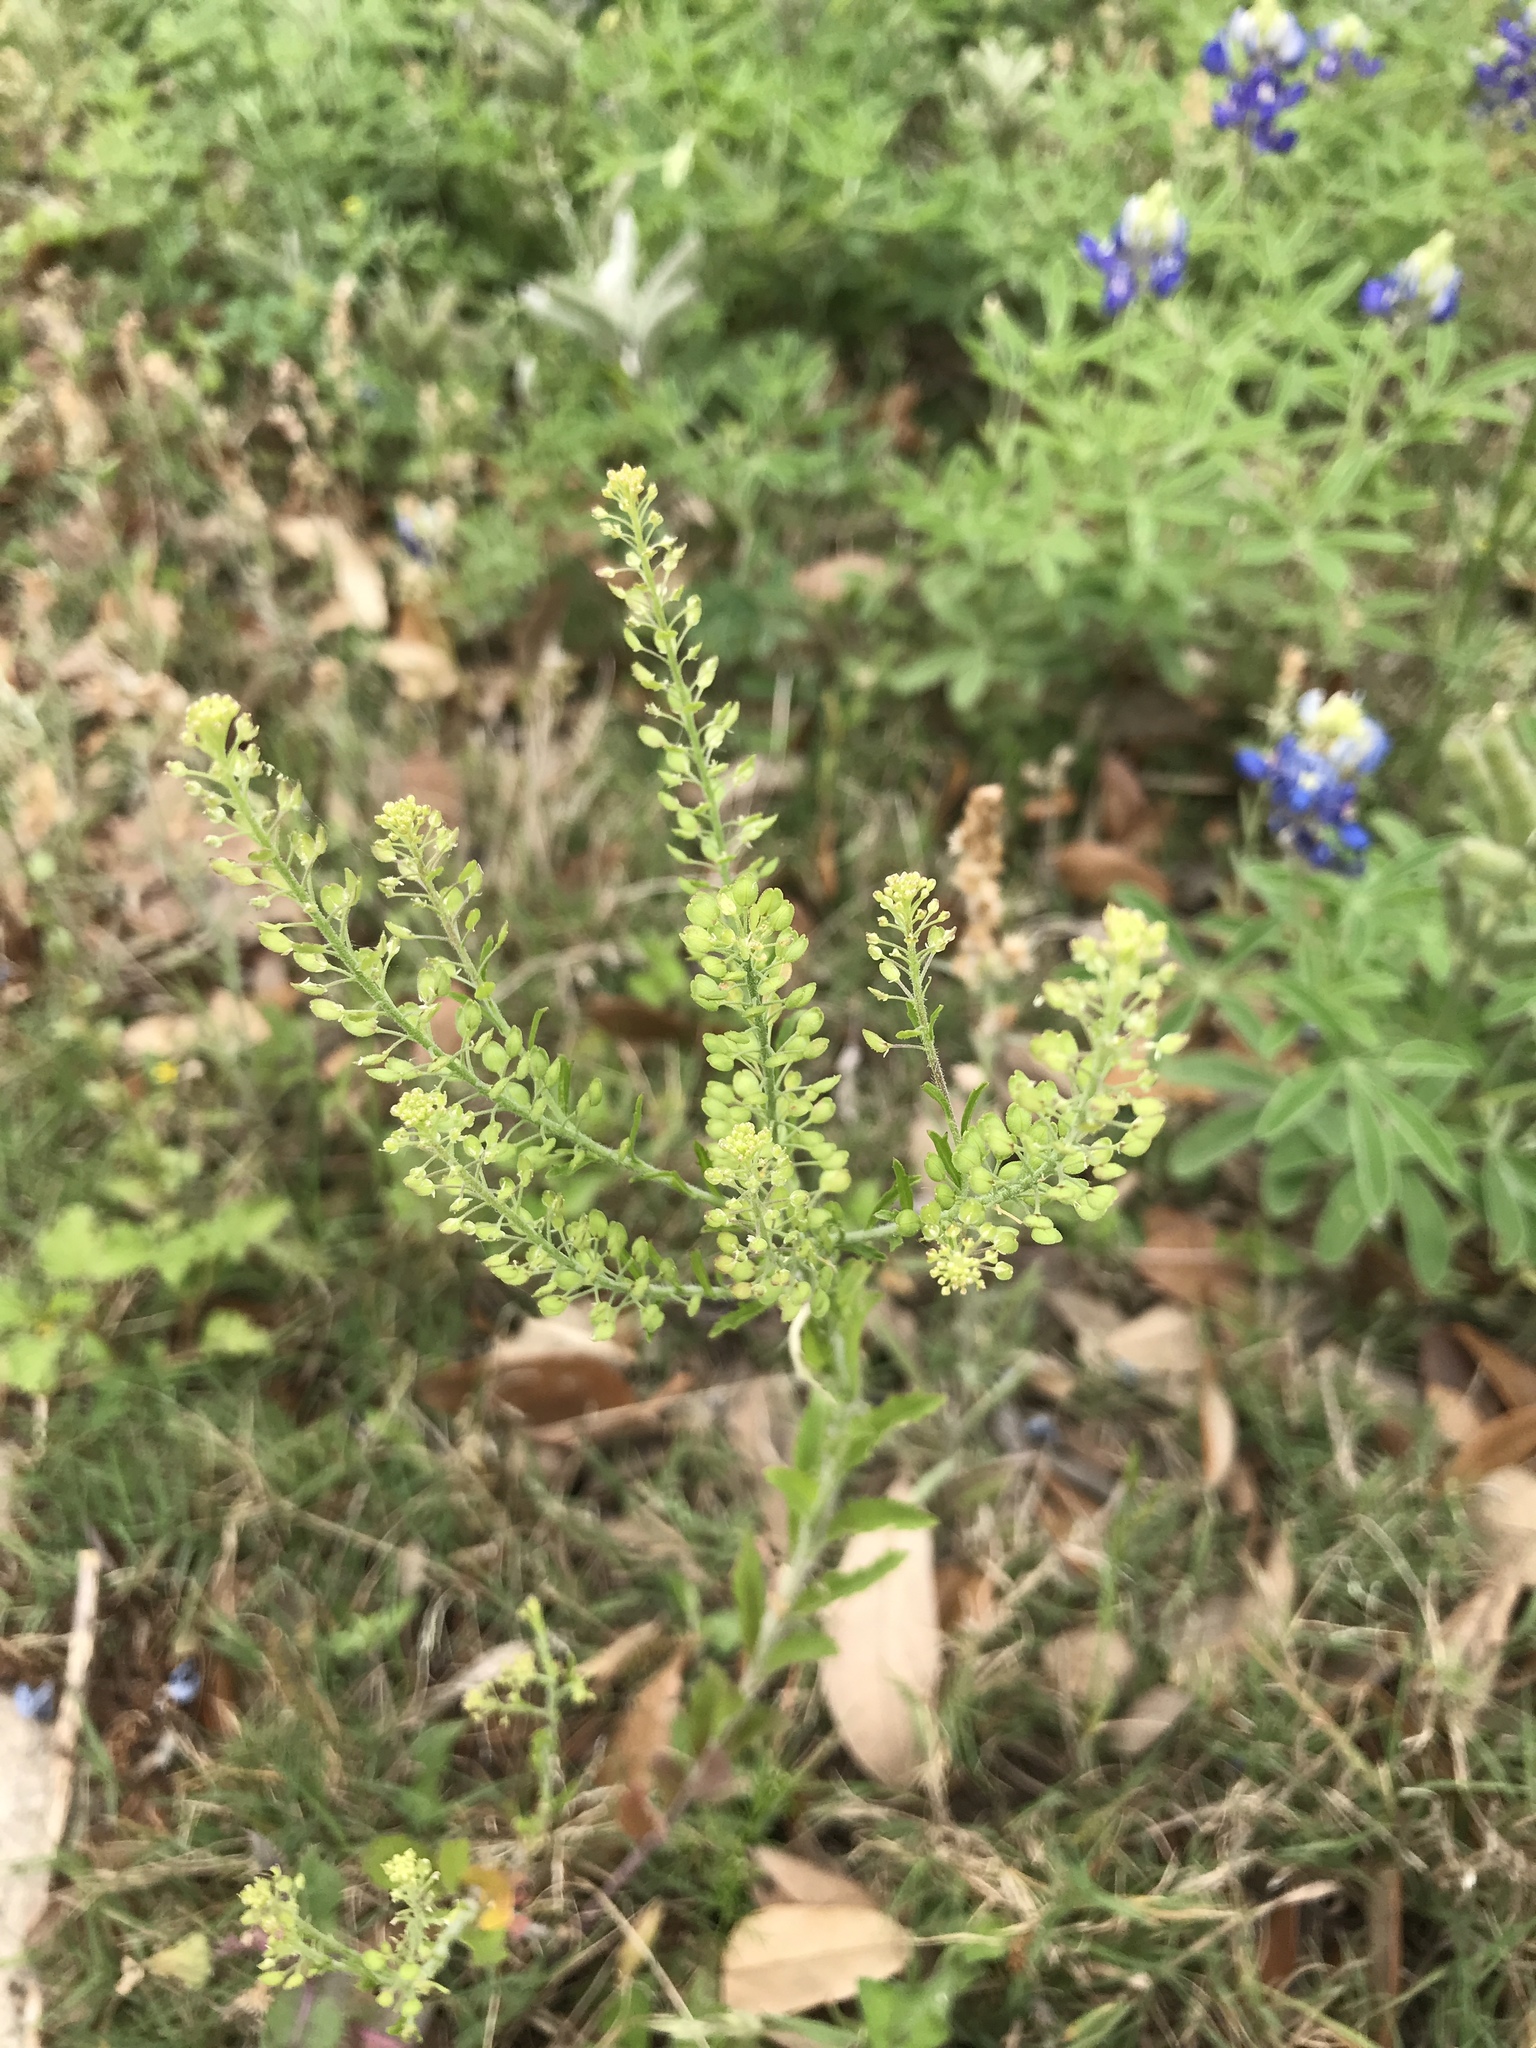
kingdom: Plantae
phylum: Tracheophyta
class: Magnoliopsida
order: Brassicales
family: Brassicaceae
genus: Lepidium
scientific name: Lepidium virginicum
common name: Least pepperwort
